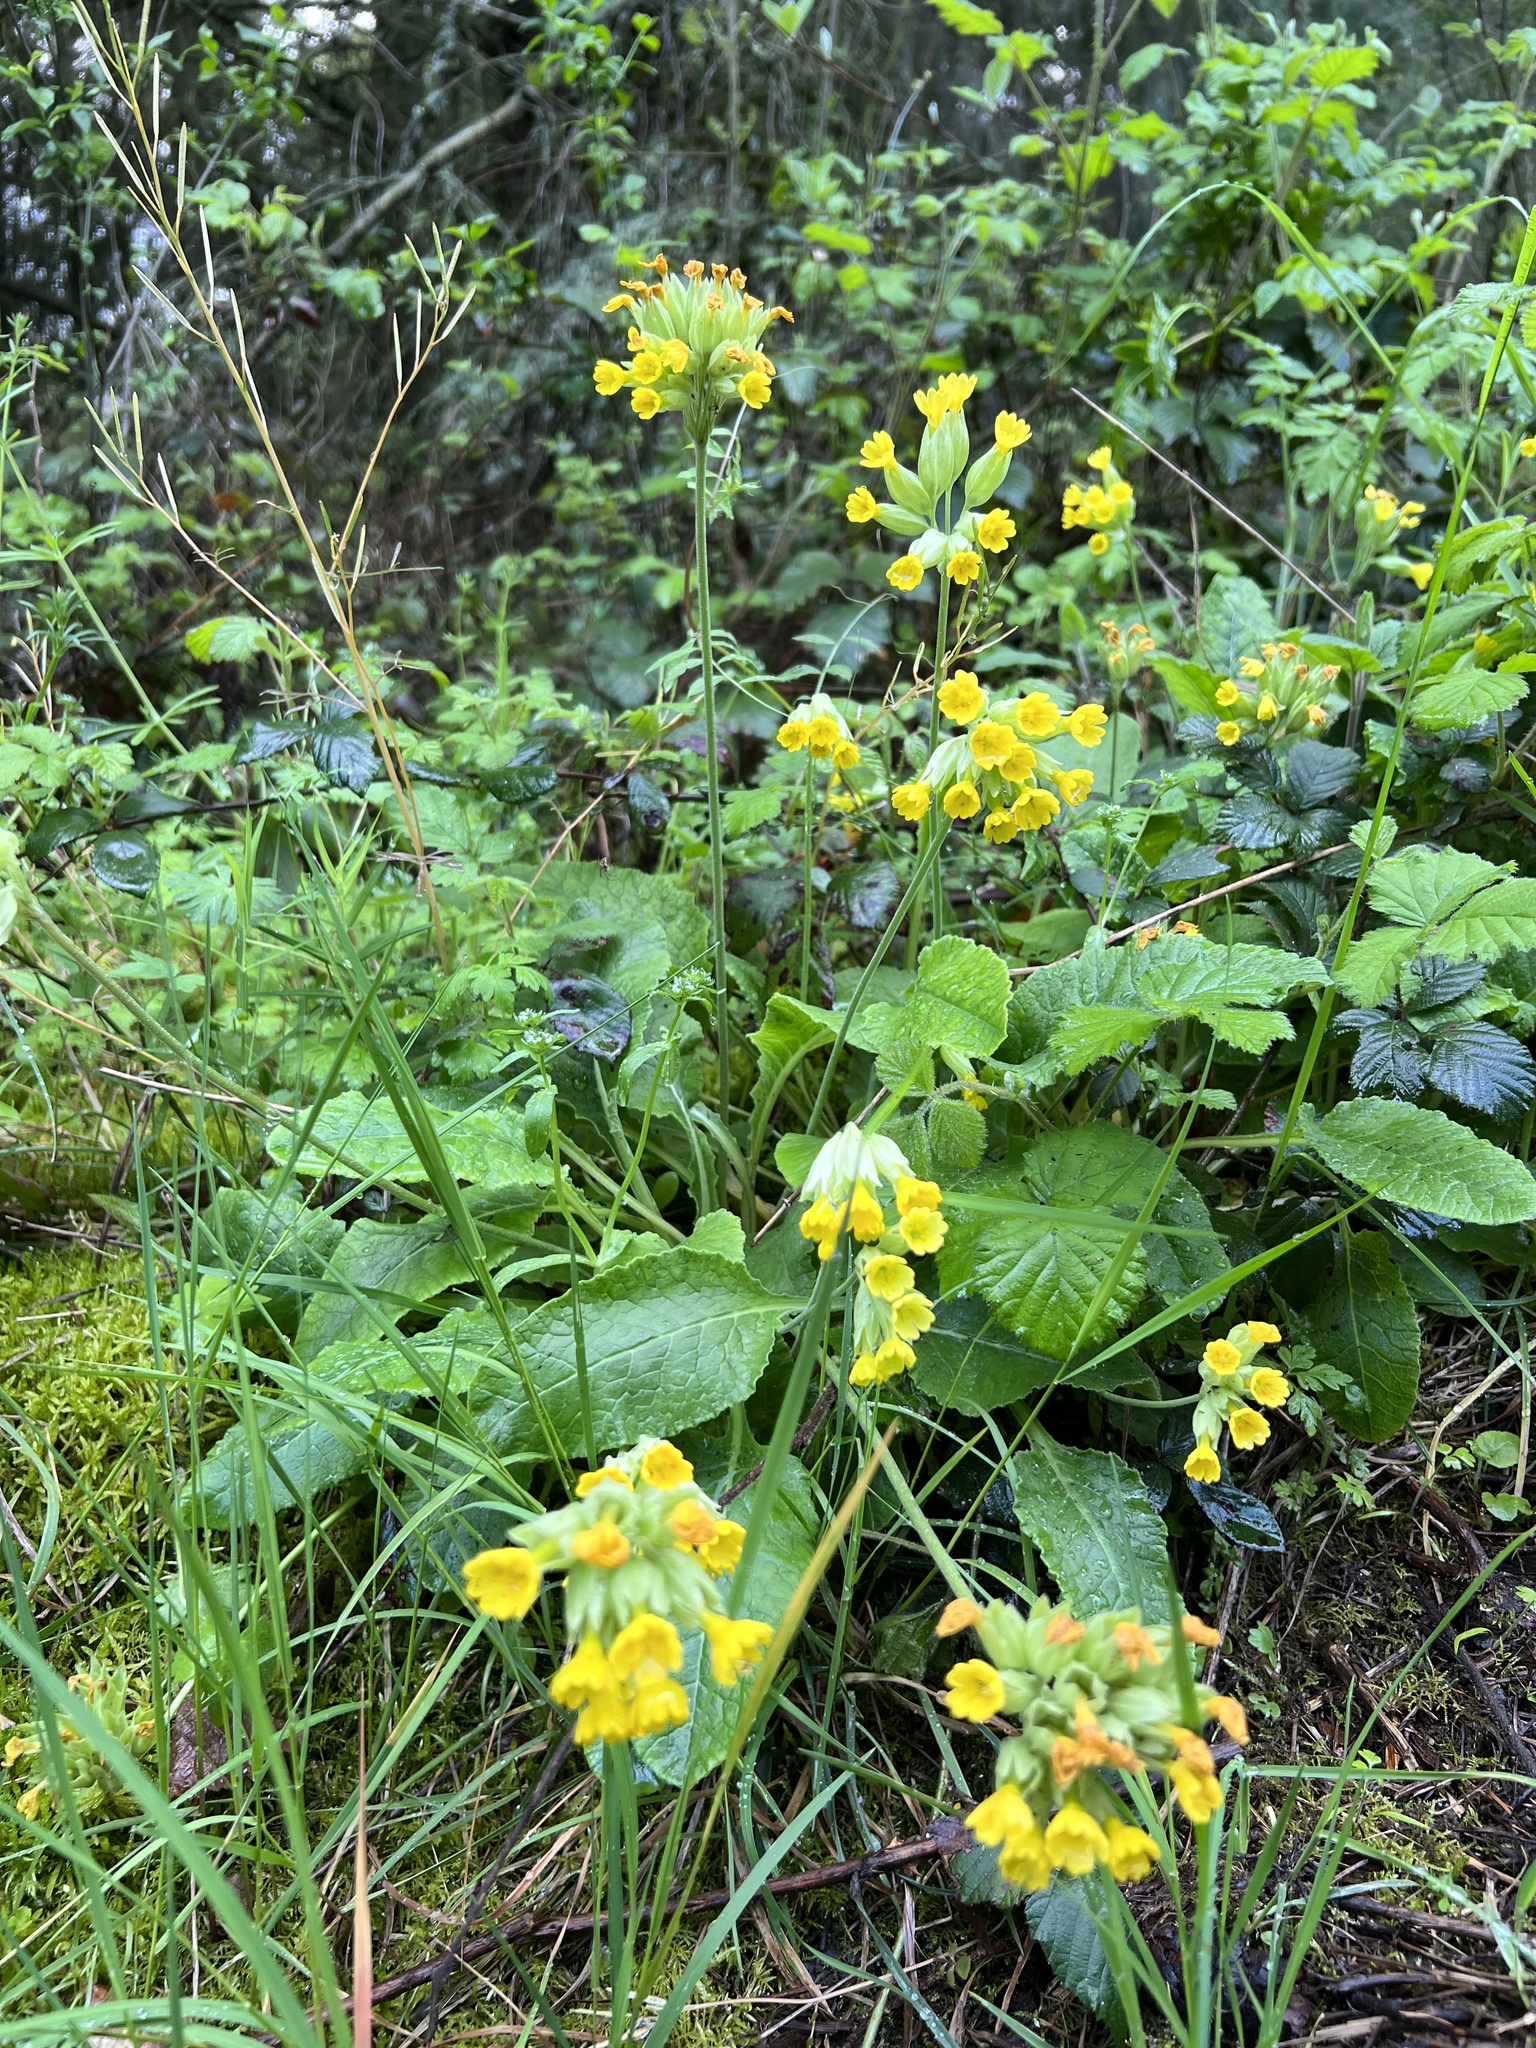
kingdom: Plantae
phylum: Tracheophyta
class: Magnoliopsida
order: Ericales
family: Primulaceae
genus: Primula
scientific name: Primula veris
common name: Cowslip
